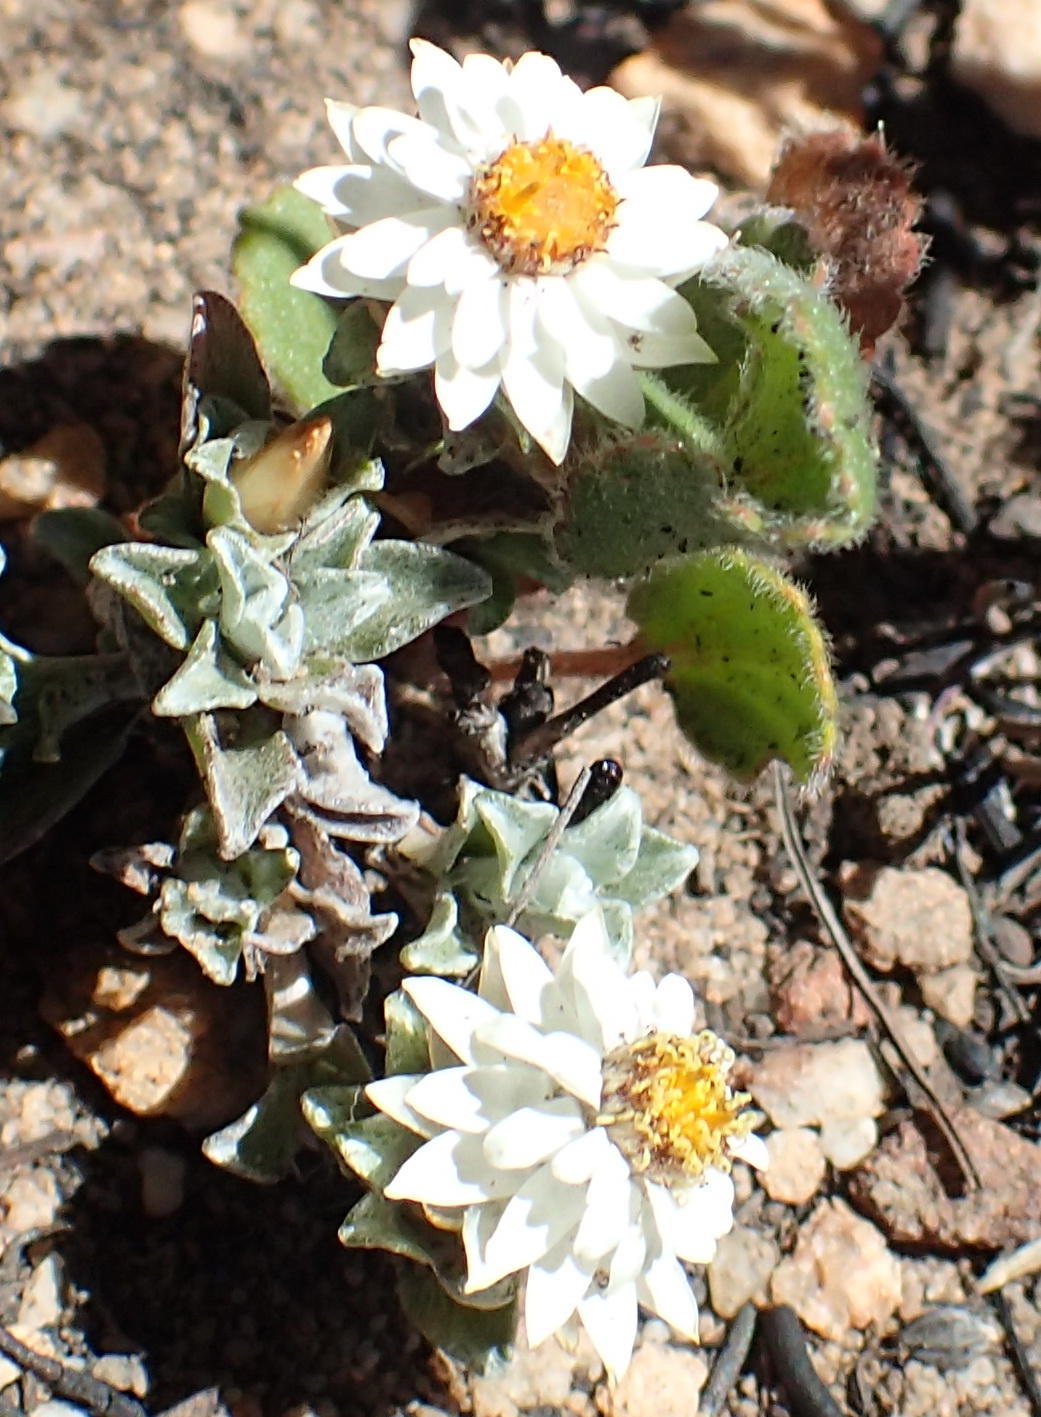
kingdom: Plantae
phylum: Tracheophyta
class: Magnoliopsida
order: Asterales
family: Asteraceae
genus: Helichrysum
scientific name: Helichrysum altigenum
